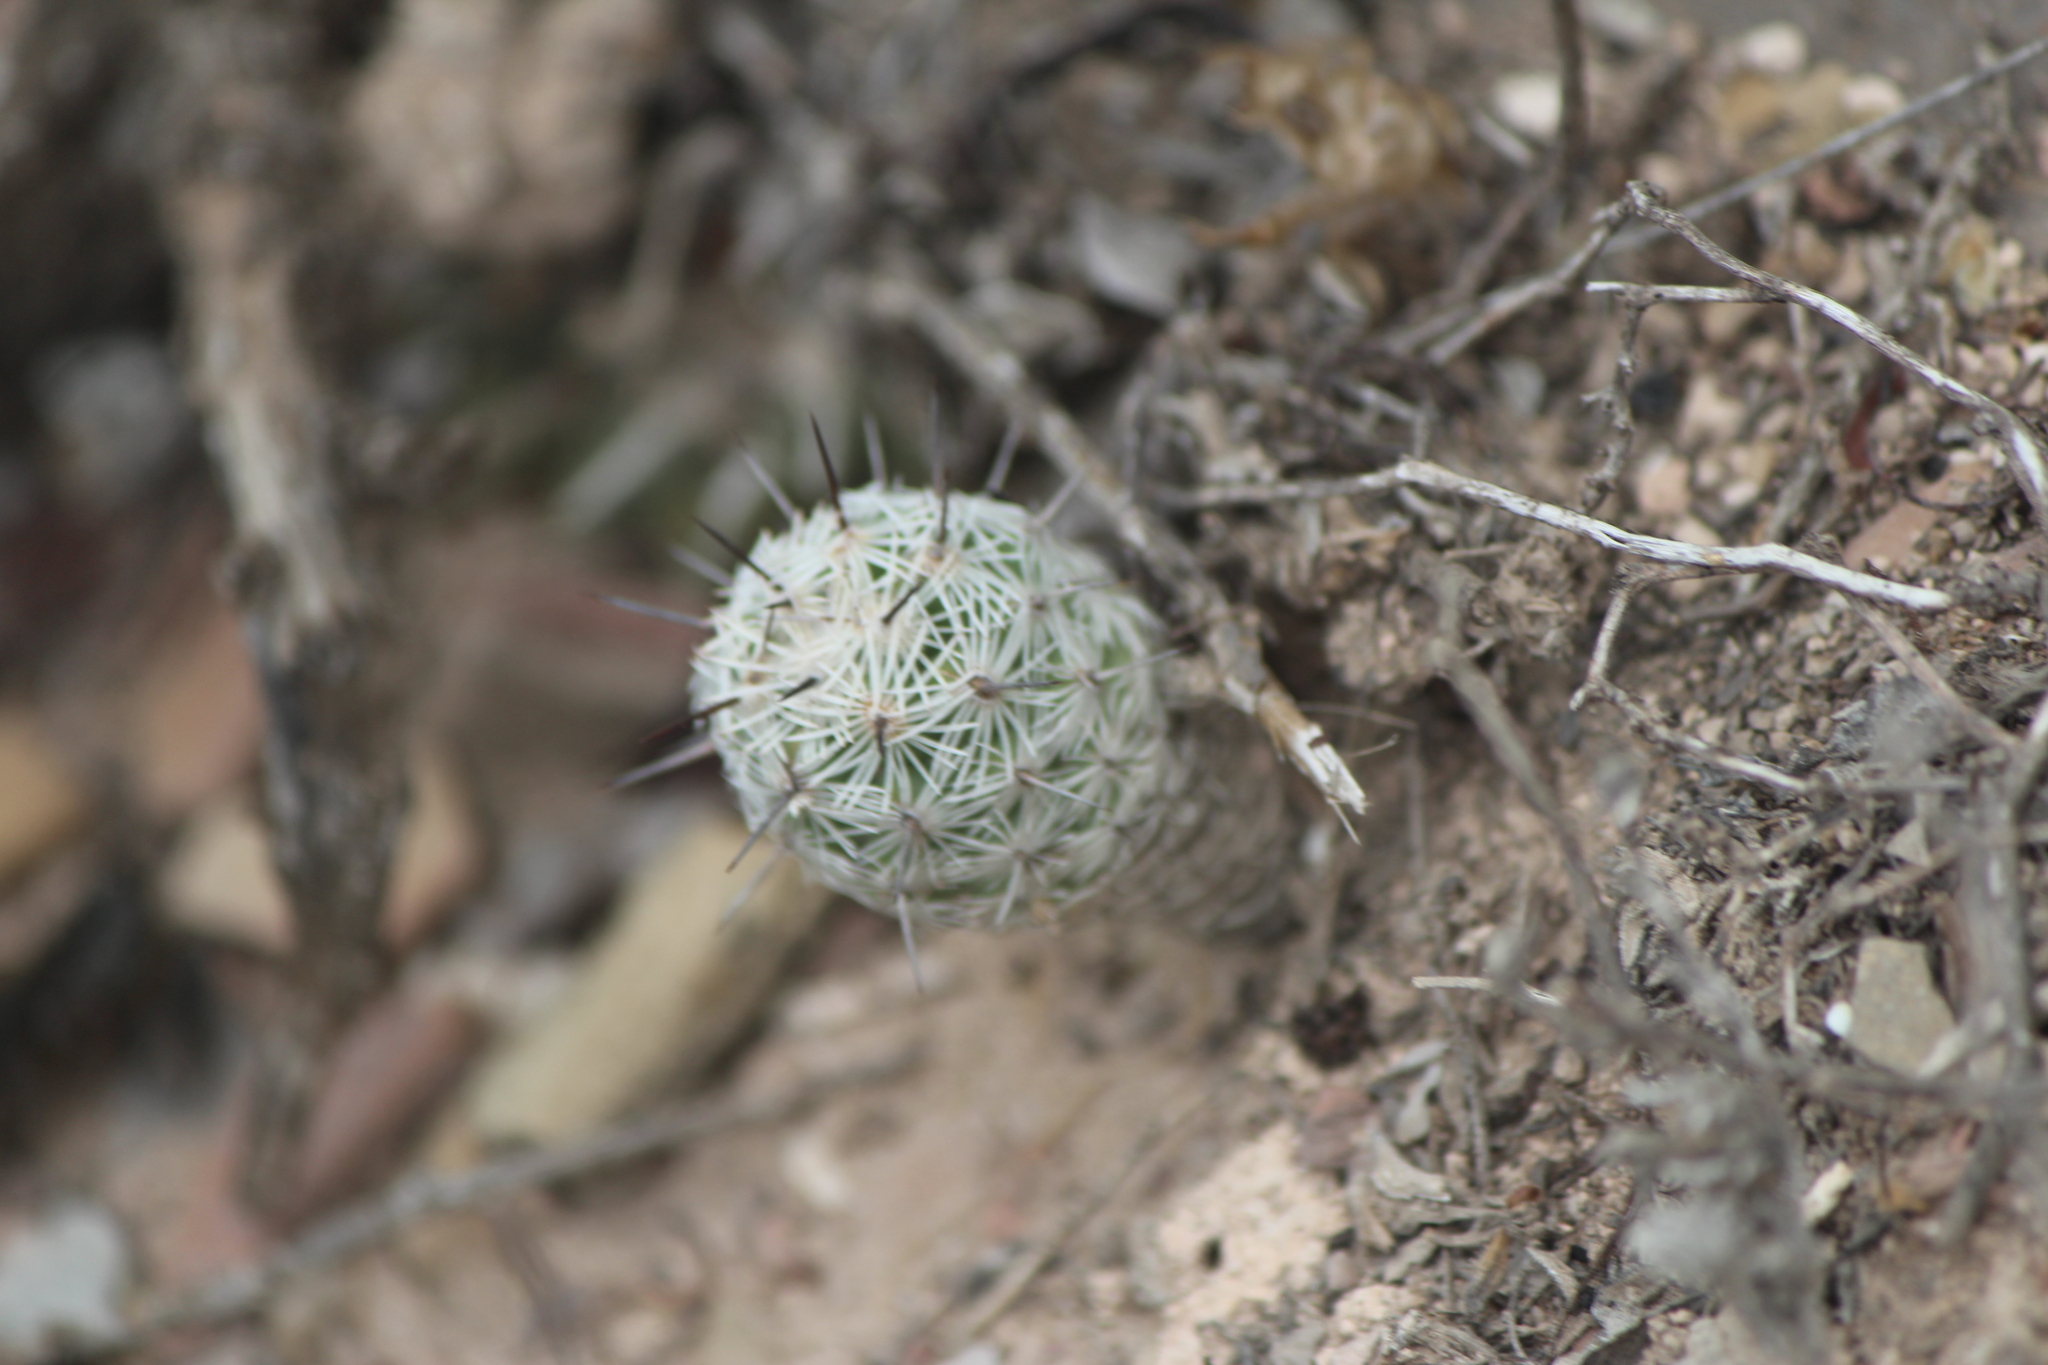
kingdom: Plantae
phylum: Tracheophyta
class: Magnoliopsida
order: Caryophyllales
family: Cactaceae
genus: Cochemiea
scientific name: Cochemiea conoidea
